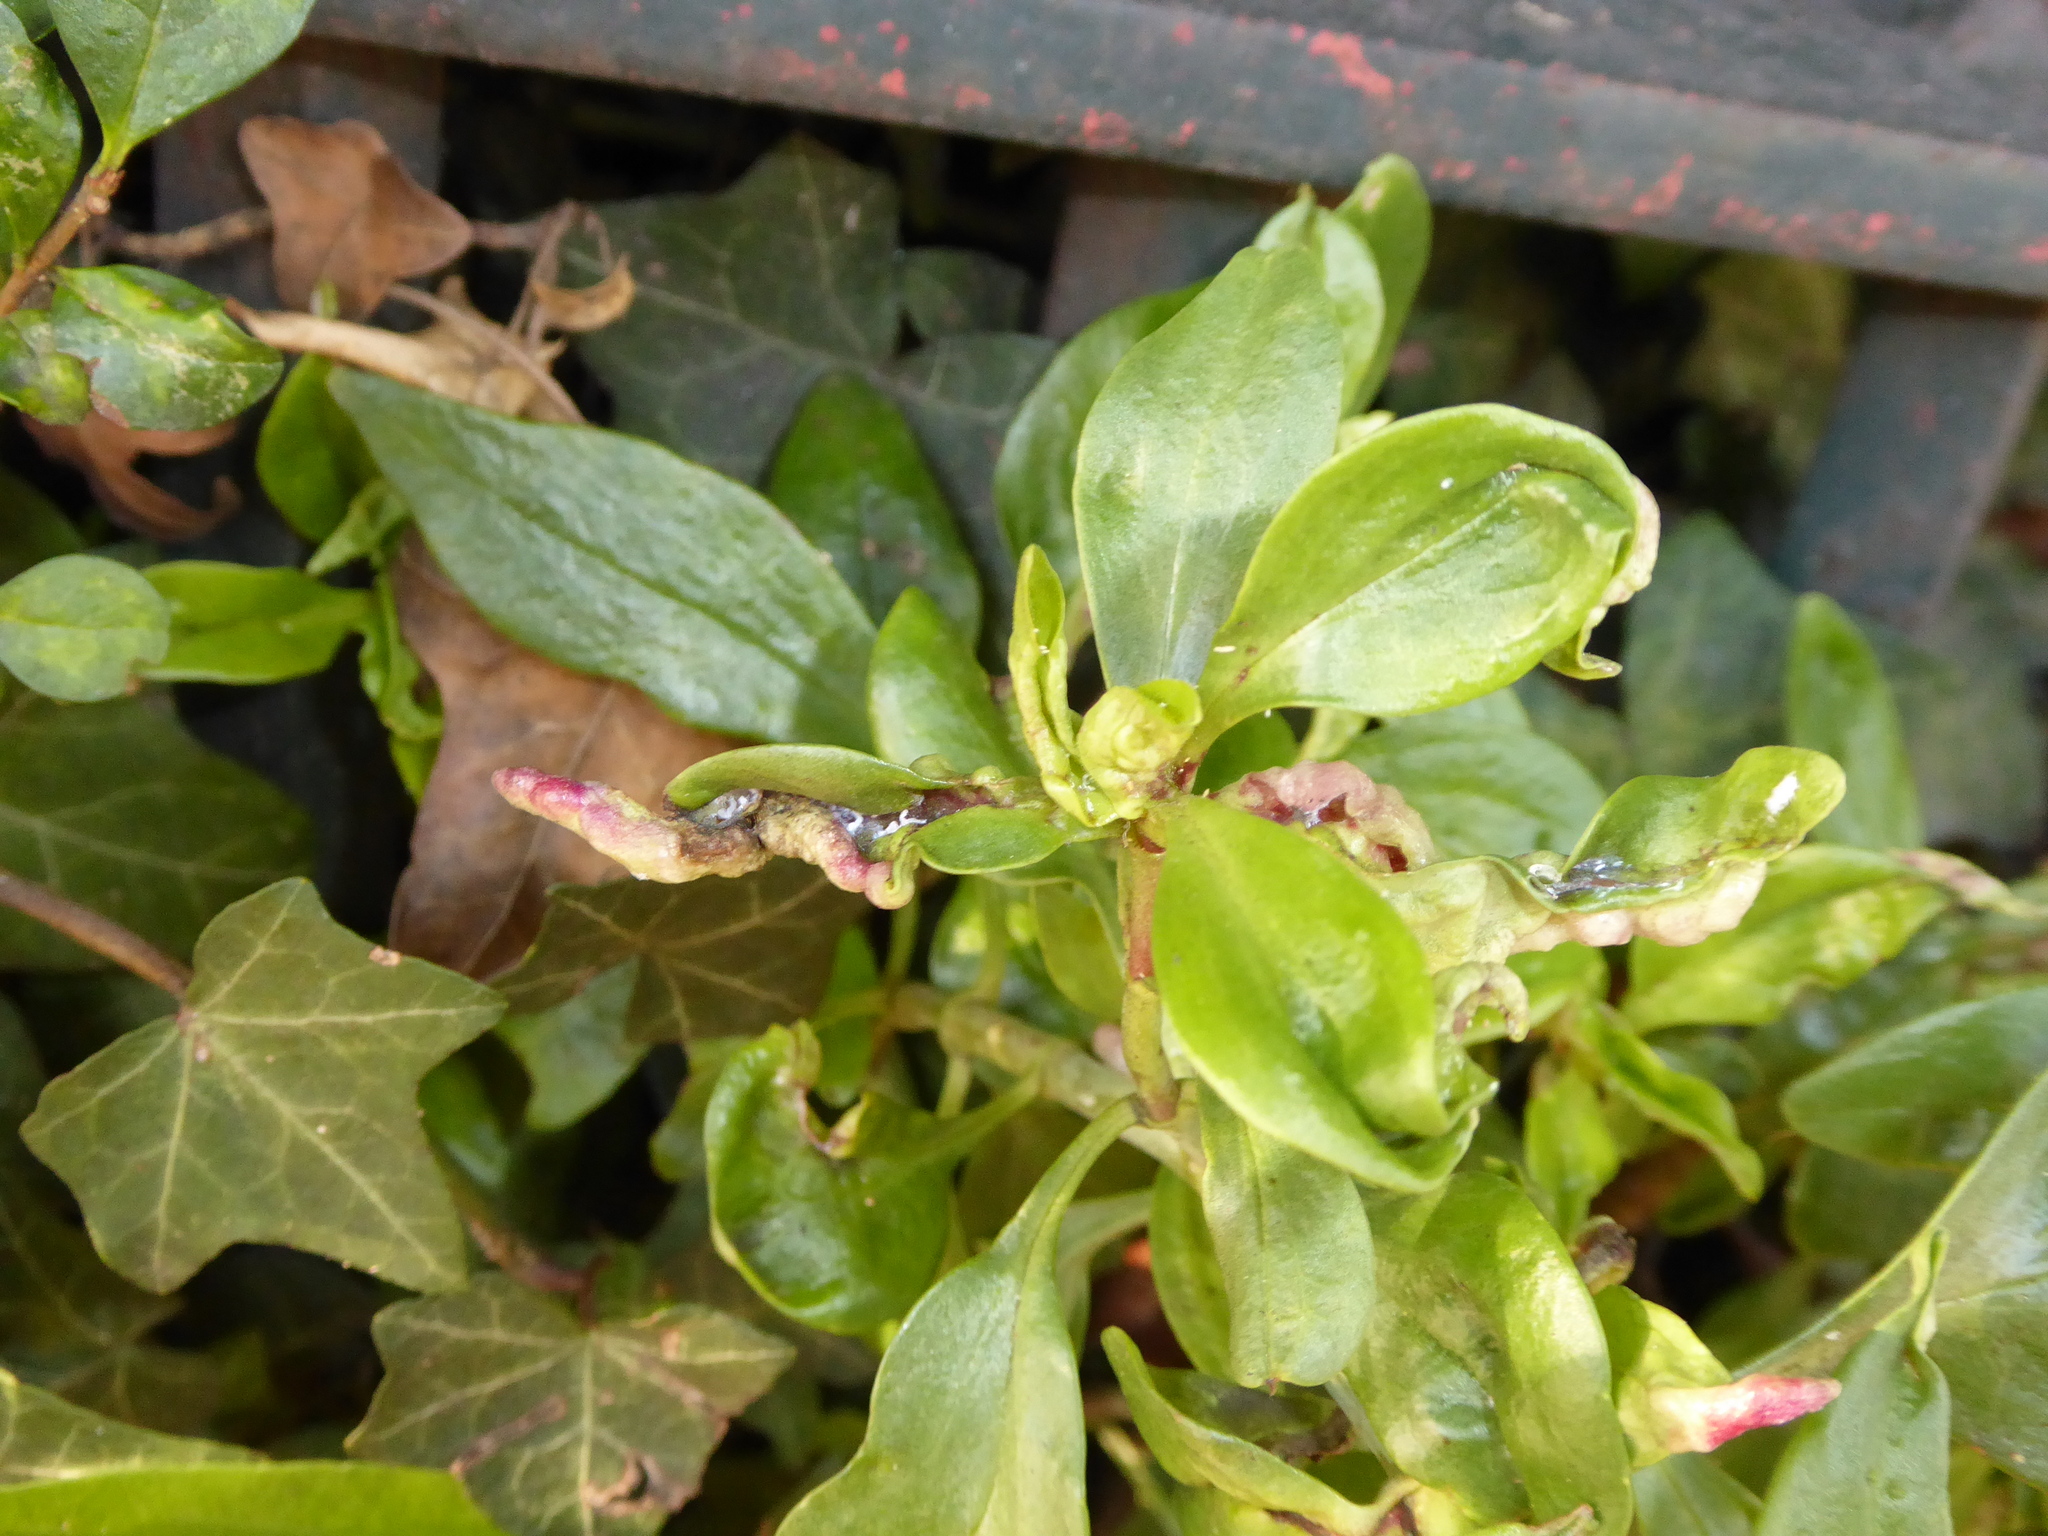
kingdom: Animalia
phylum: Arthropoda
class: Insecta
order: Hemiptera
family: Triozidae
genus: Trioza
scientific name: Trioza centranthi
